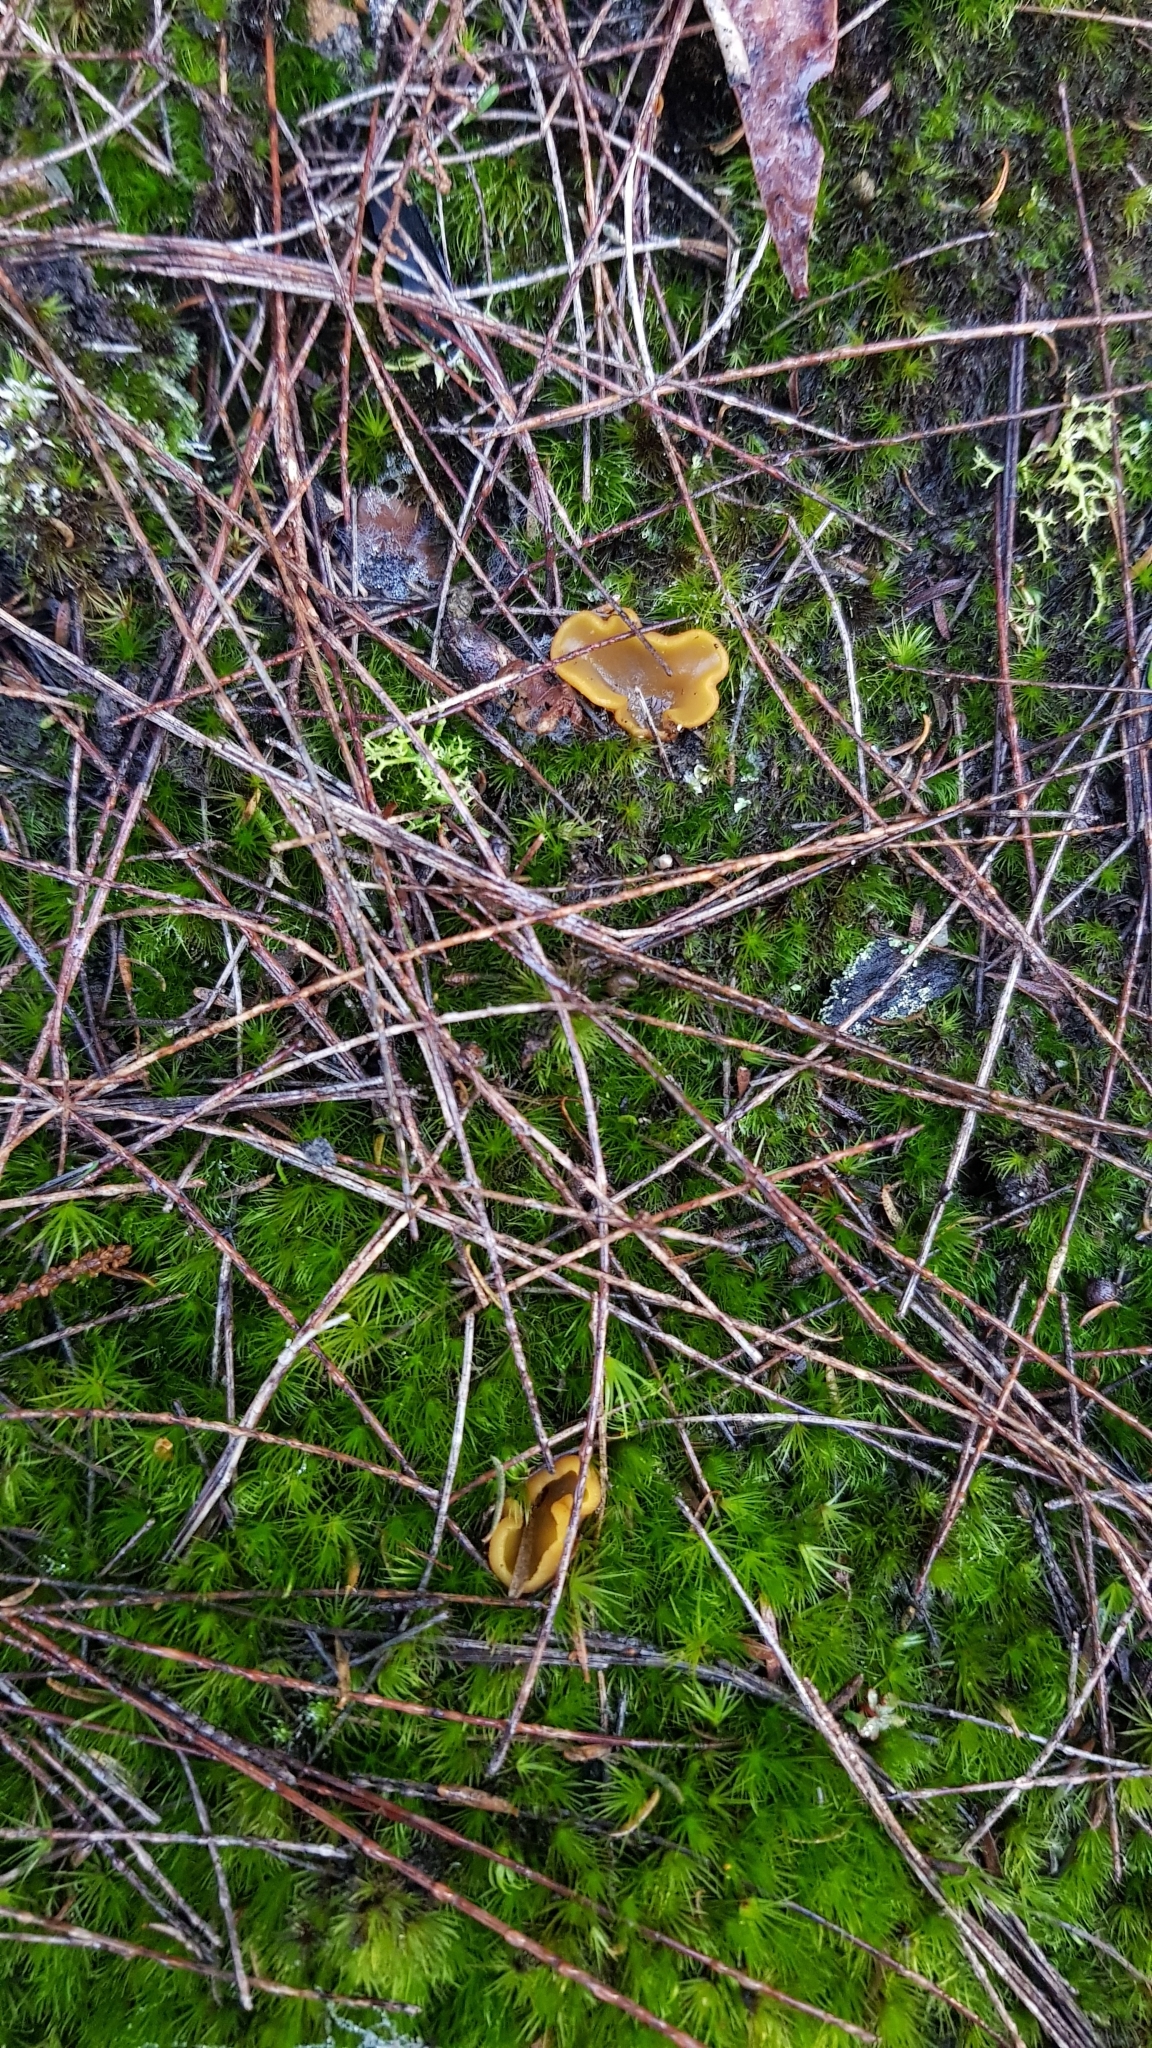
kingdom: Fungi
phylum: Ascomycota
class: Pezizomycetes
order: Pezizales
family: Pyronemataceae
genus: Aleurina
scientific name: Aleurina ferruginea
